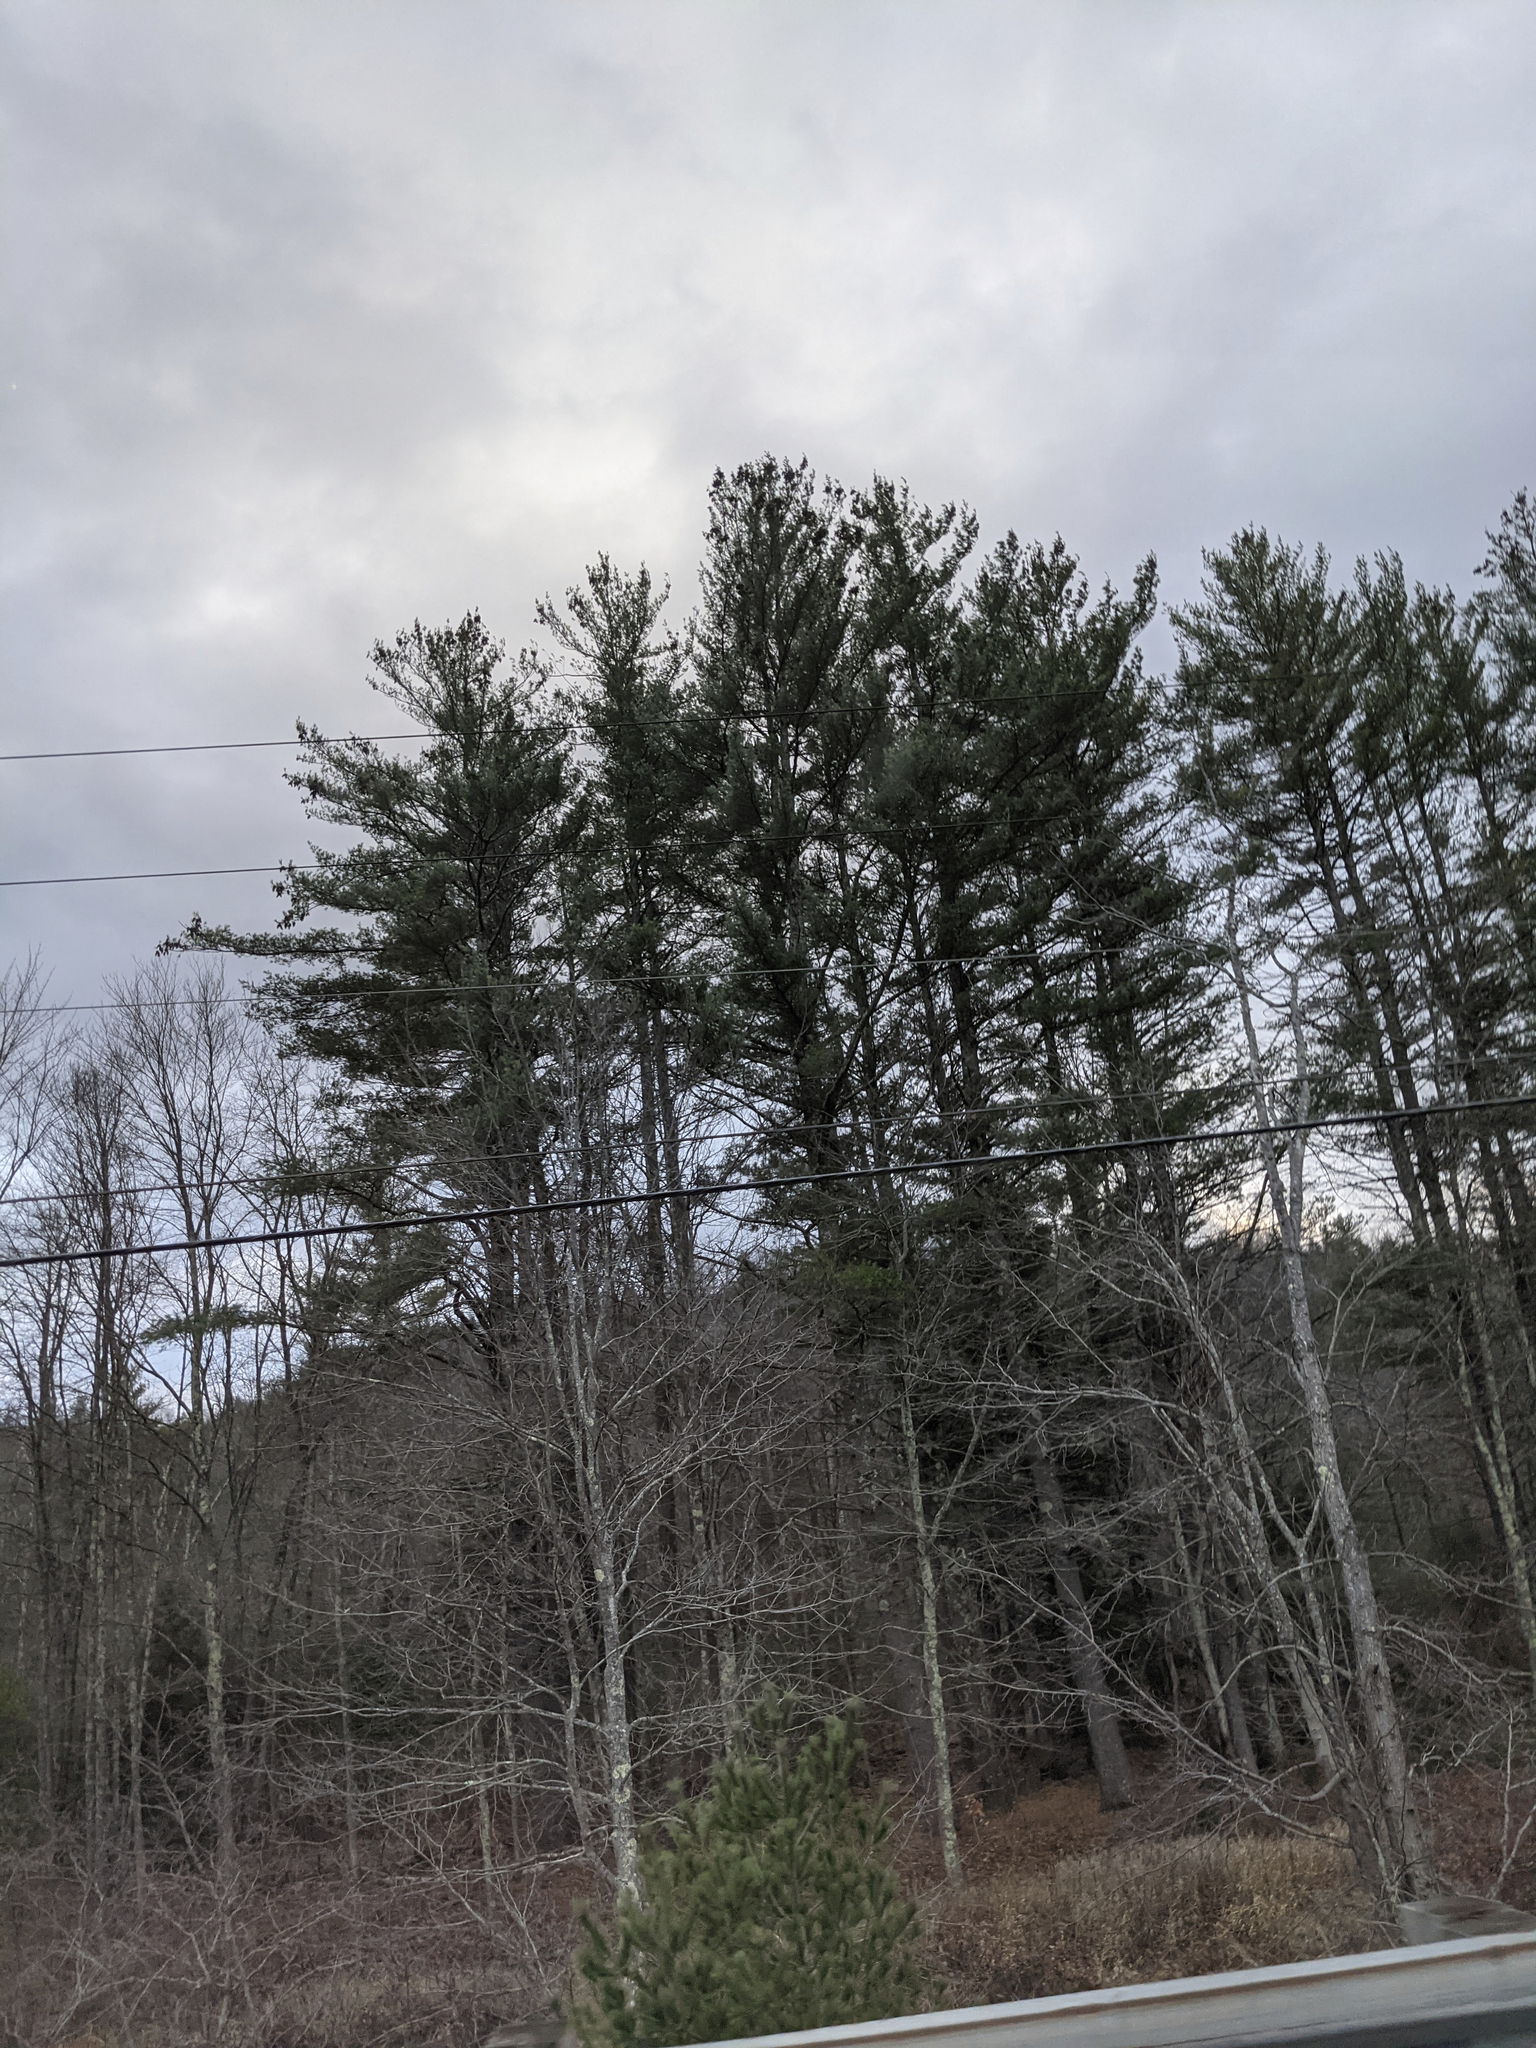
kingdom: Plantae
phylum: Tracheophyta
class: Pinopsida
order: Pinales
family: Pinaceae
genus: Pinus
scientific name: Pinus strobus
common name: Weymouth pine
